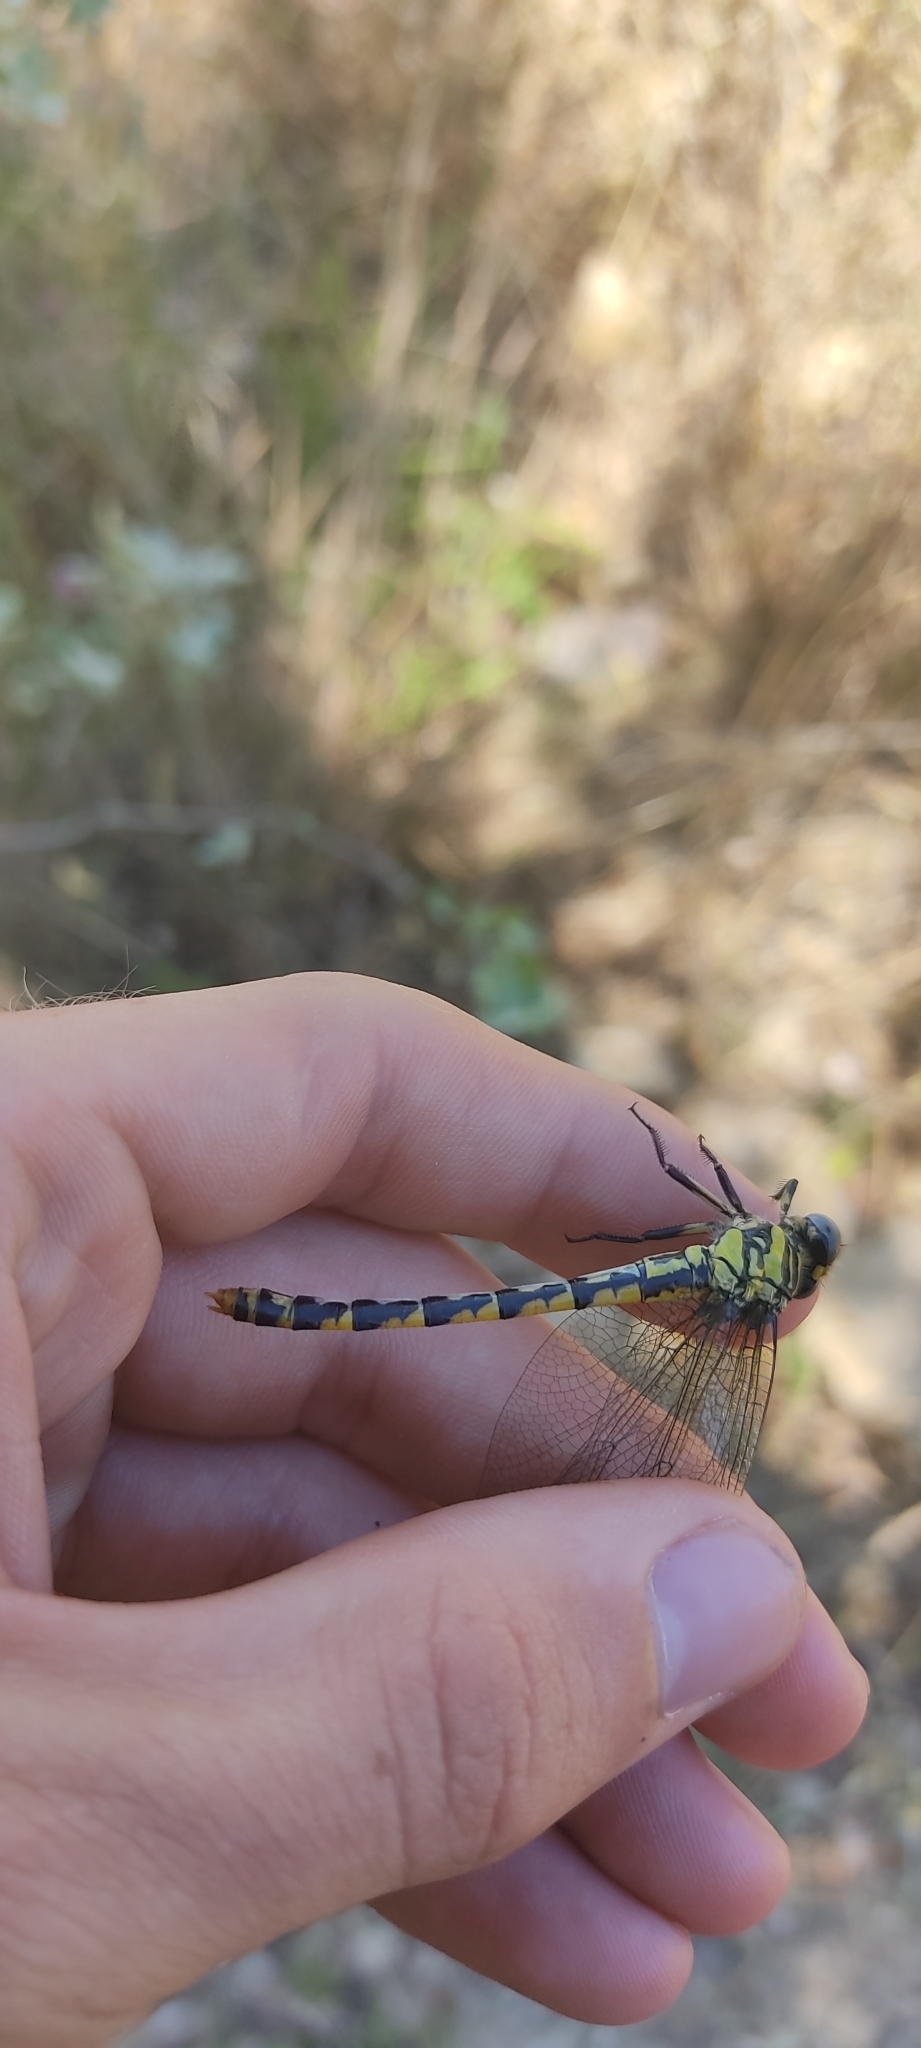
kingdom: Animalia
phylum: Arthropoda
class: Insecta
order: Odonata
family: Gomphidae
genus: Onychogomphus
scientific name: Onychogomphus uncatus
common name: Large pincertail
